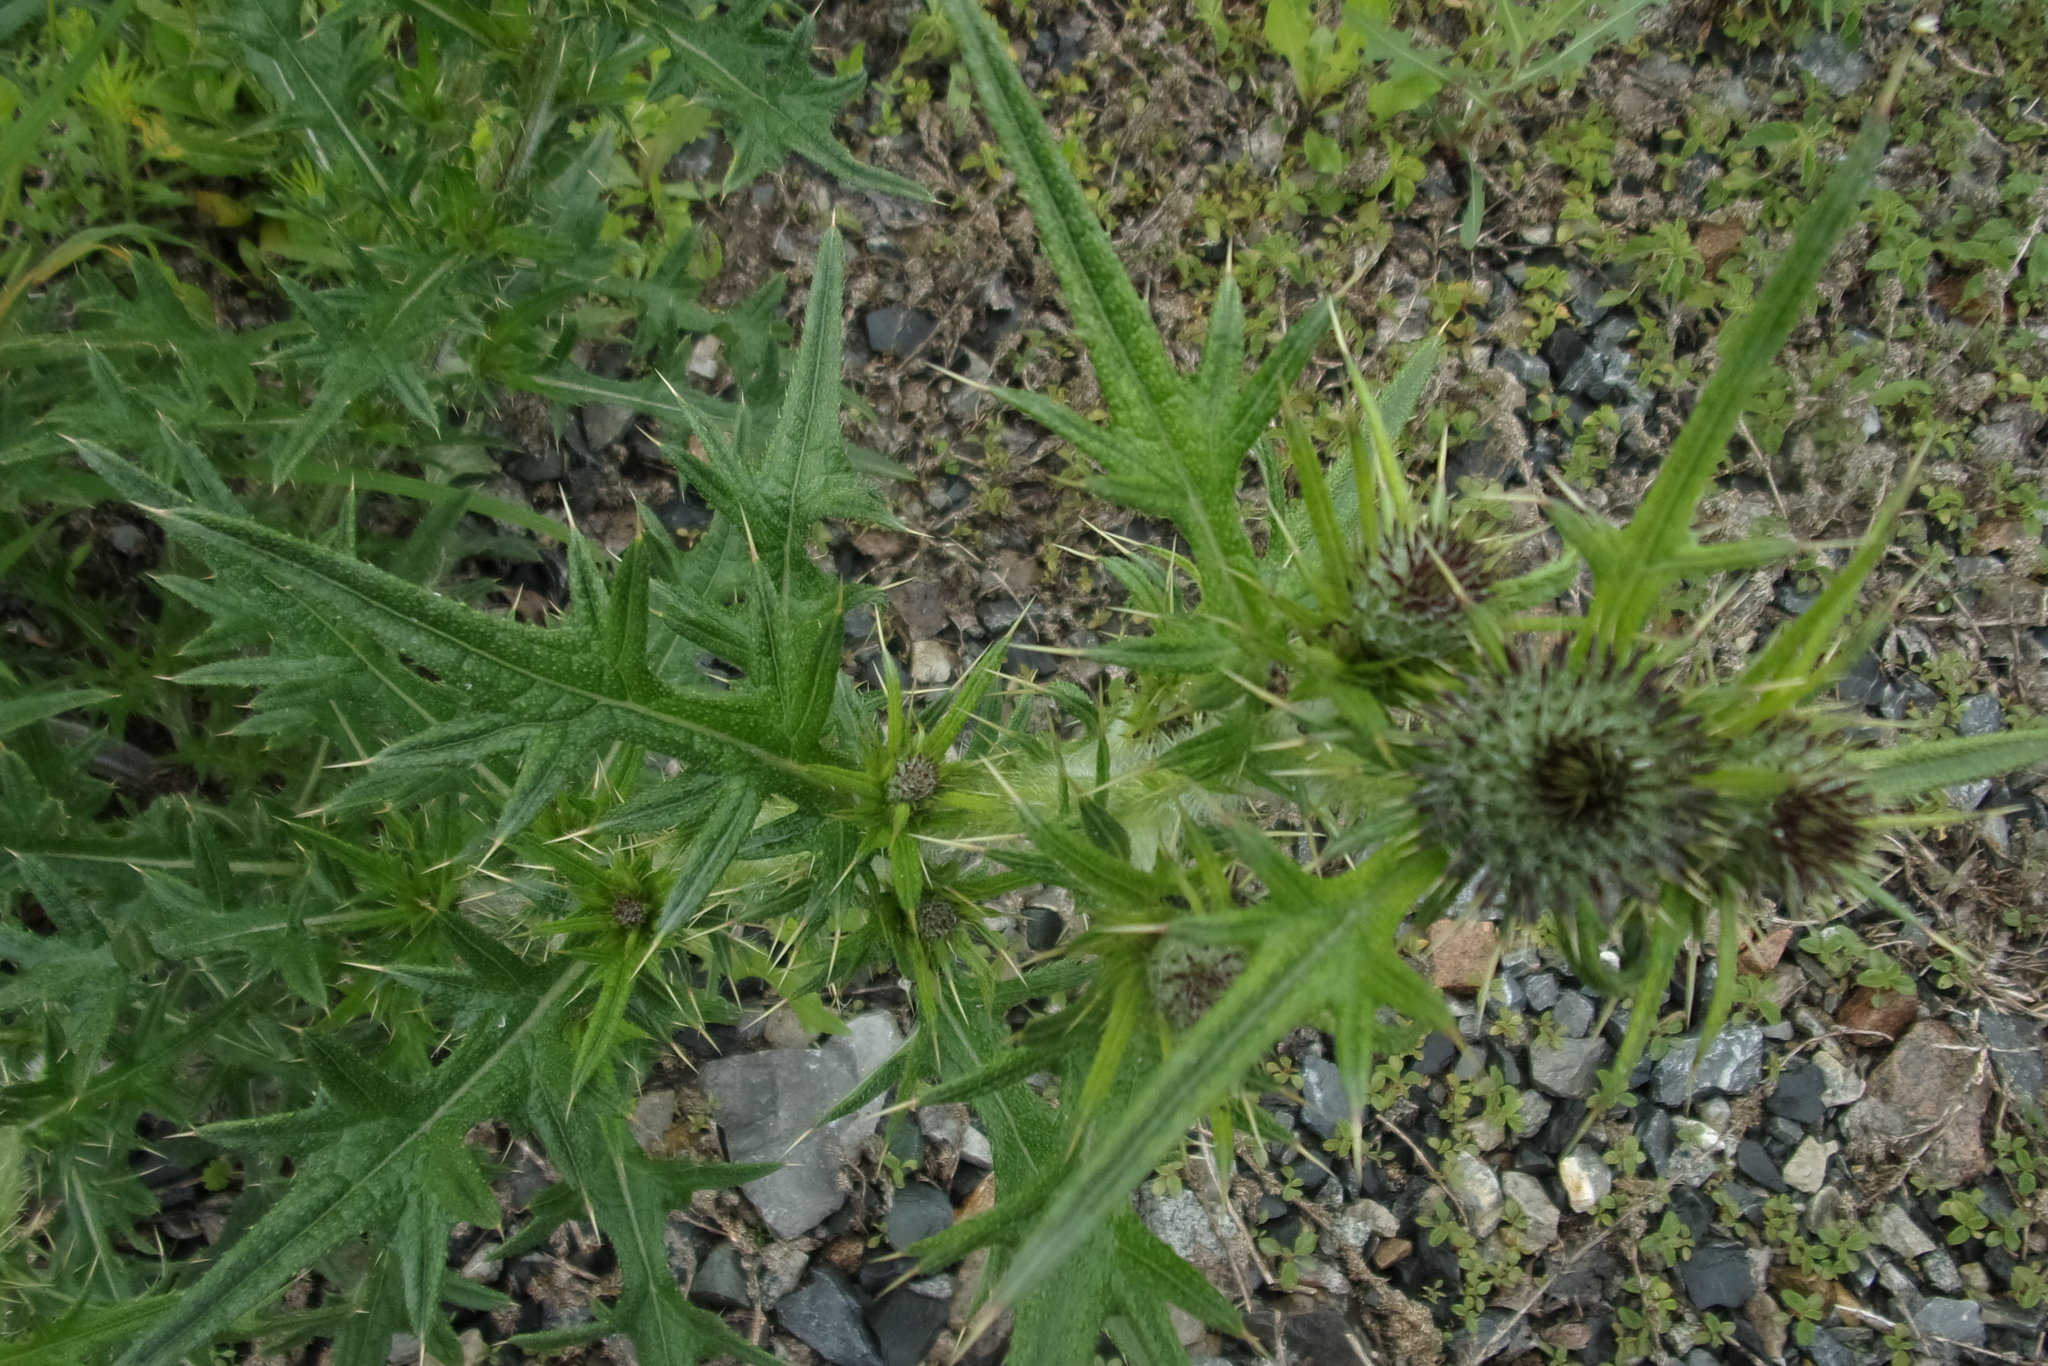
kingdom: Plantae
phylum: Tracheophyta
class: Magnoliopsida
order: Asterales
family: Asteraceae
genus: Cirsium
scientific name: Cirsium vulgare
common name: Bull thistle
